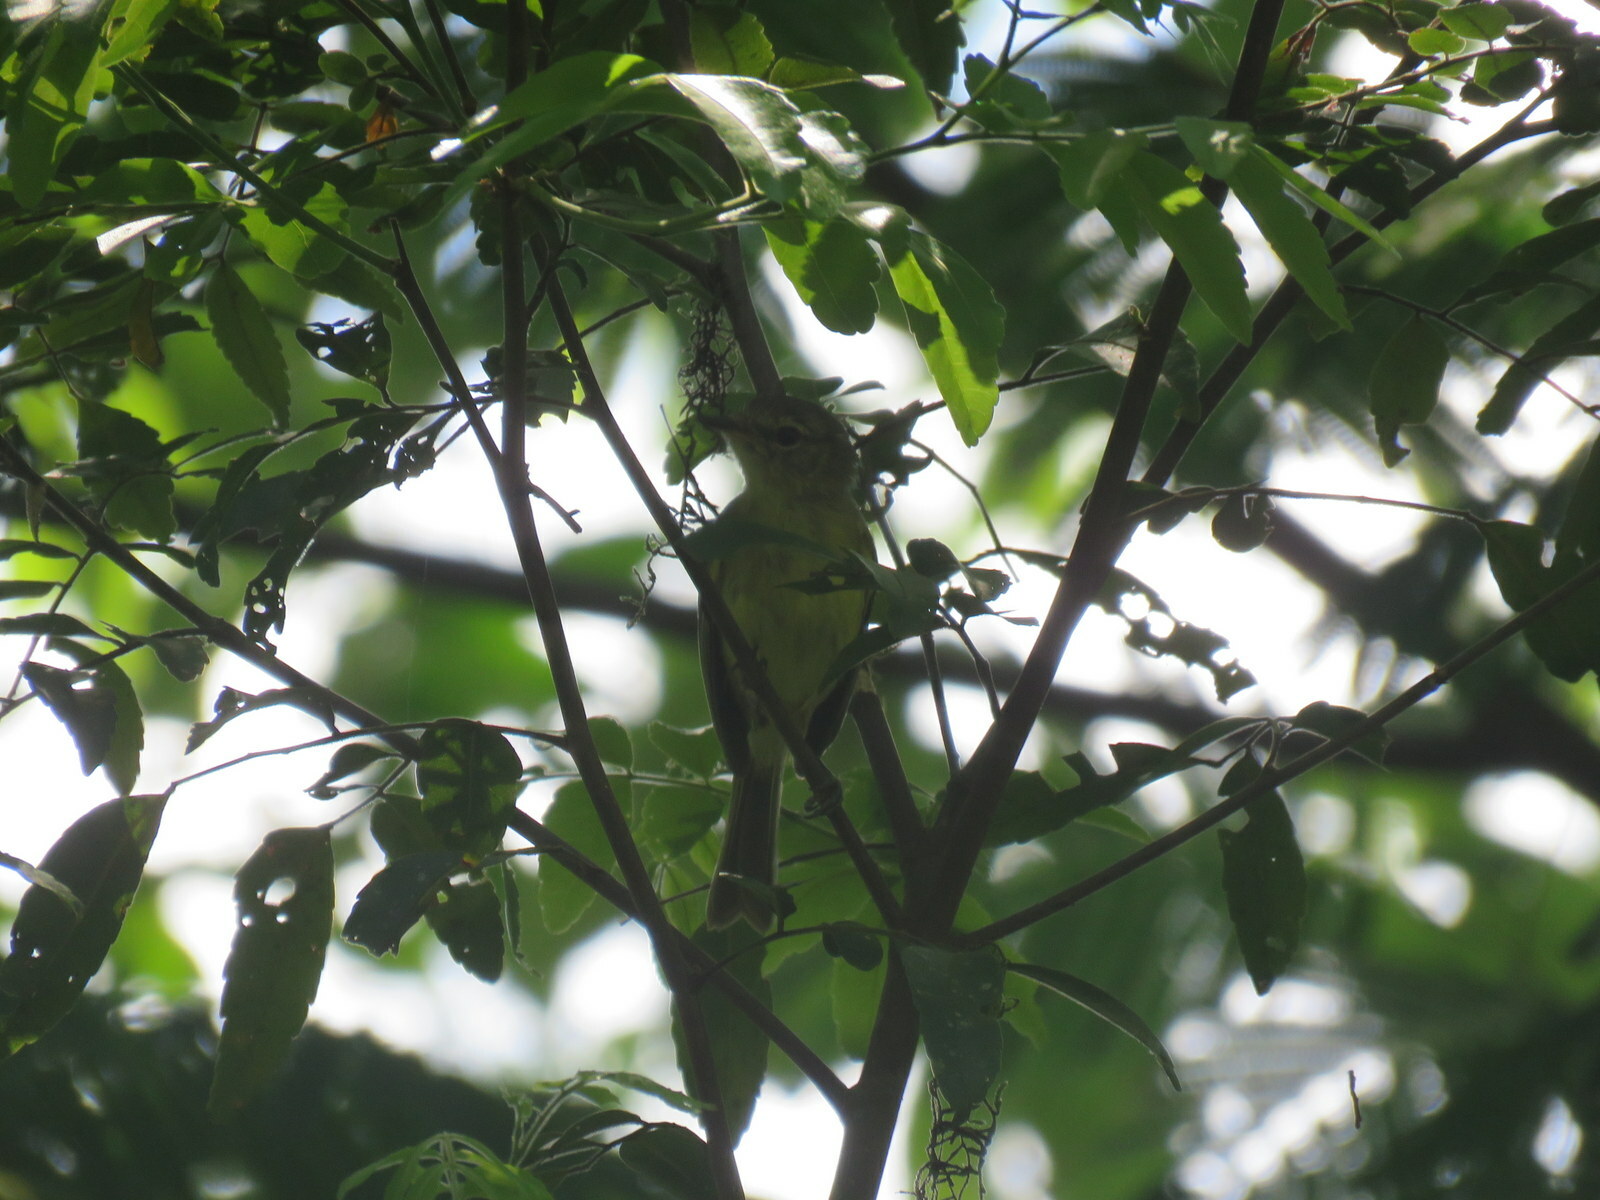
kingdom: Animalia
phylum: Chordata
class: Aves
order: Passeriformes
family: Tyrannidae
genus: Myiopagis
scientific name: Myiopagis viridicata
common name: Greenish elaenia
